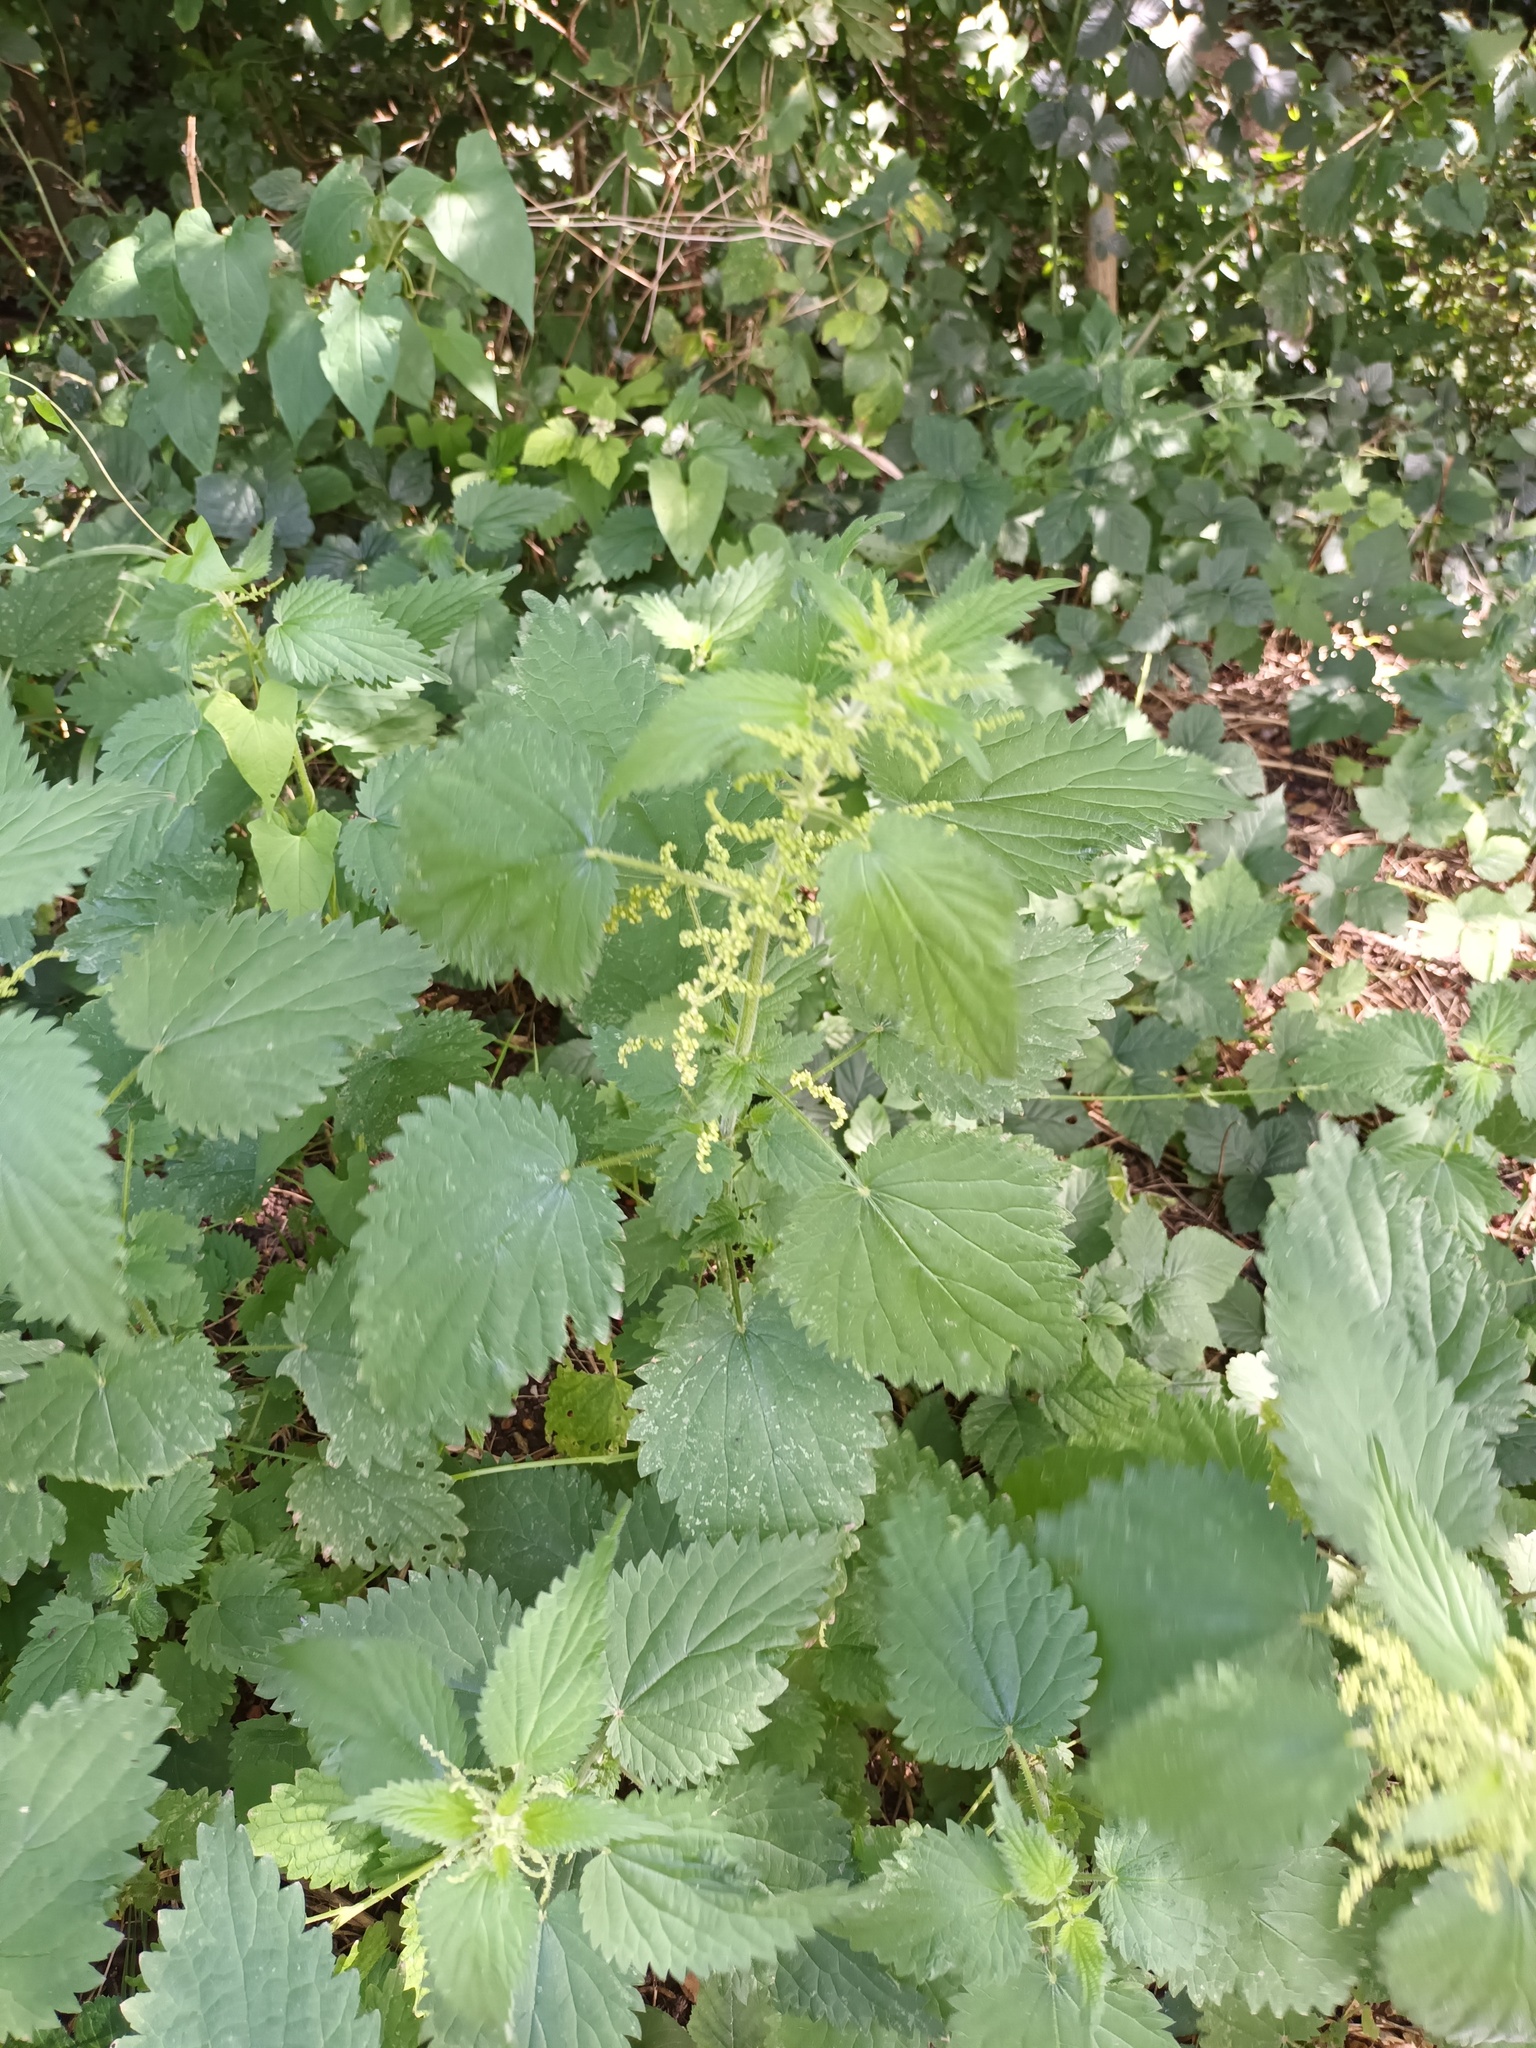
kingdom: Plantae
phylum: Tracheophyta
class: Magnoliopsida
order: Rosales
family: Urticaceae
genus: Urtica
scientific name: Urtica dioica
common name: Common nettle
